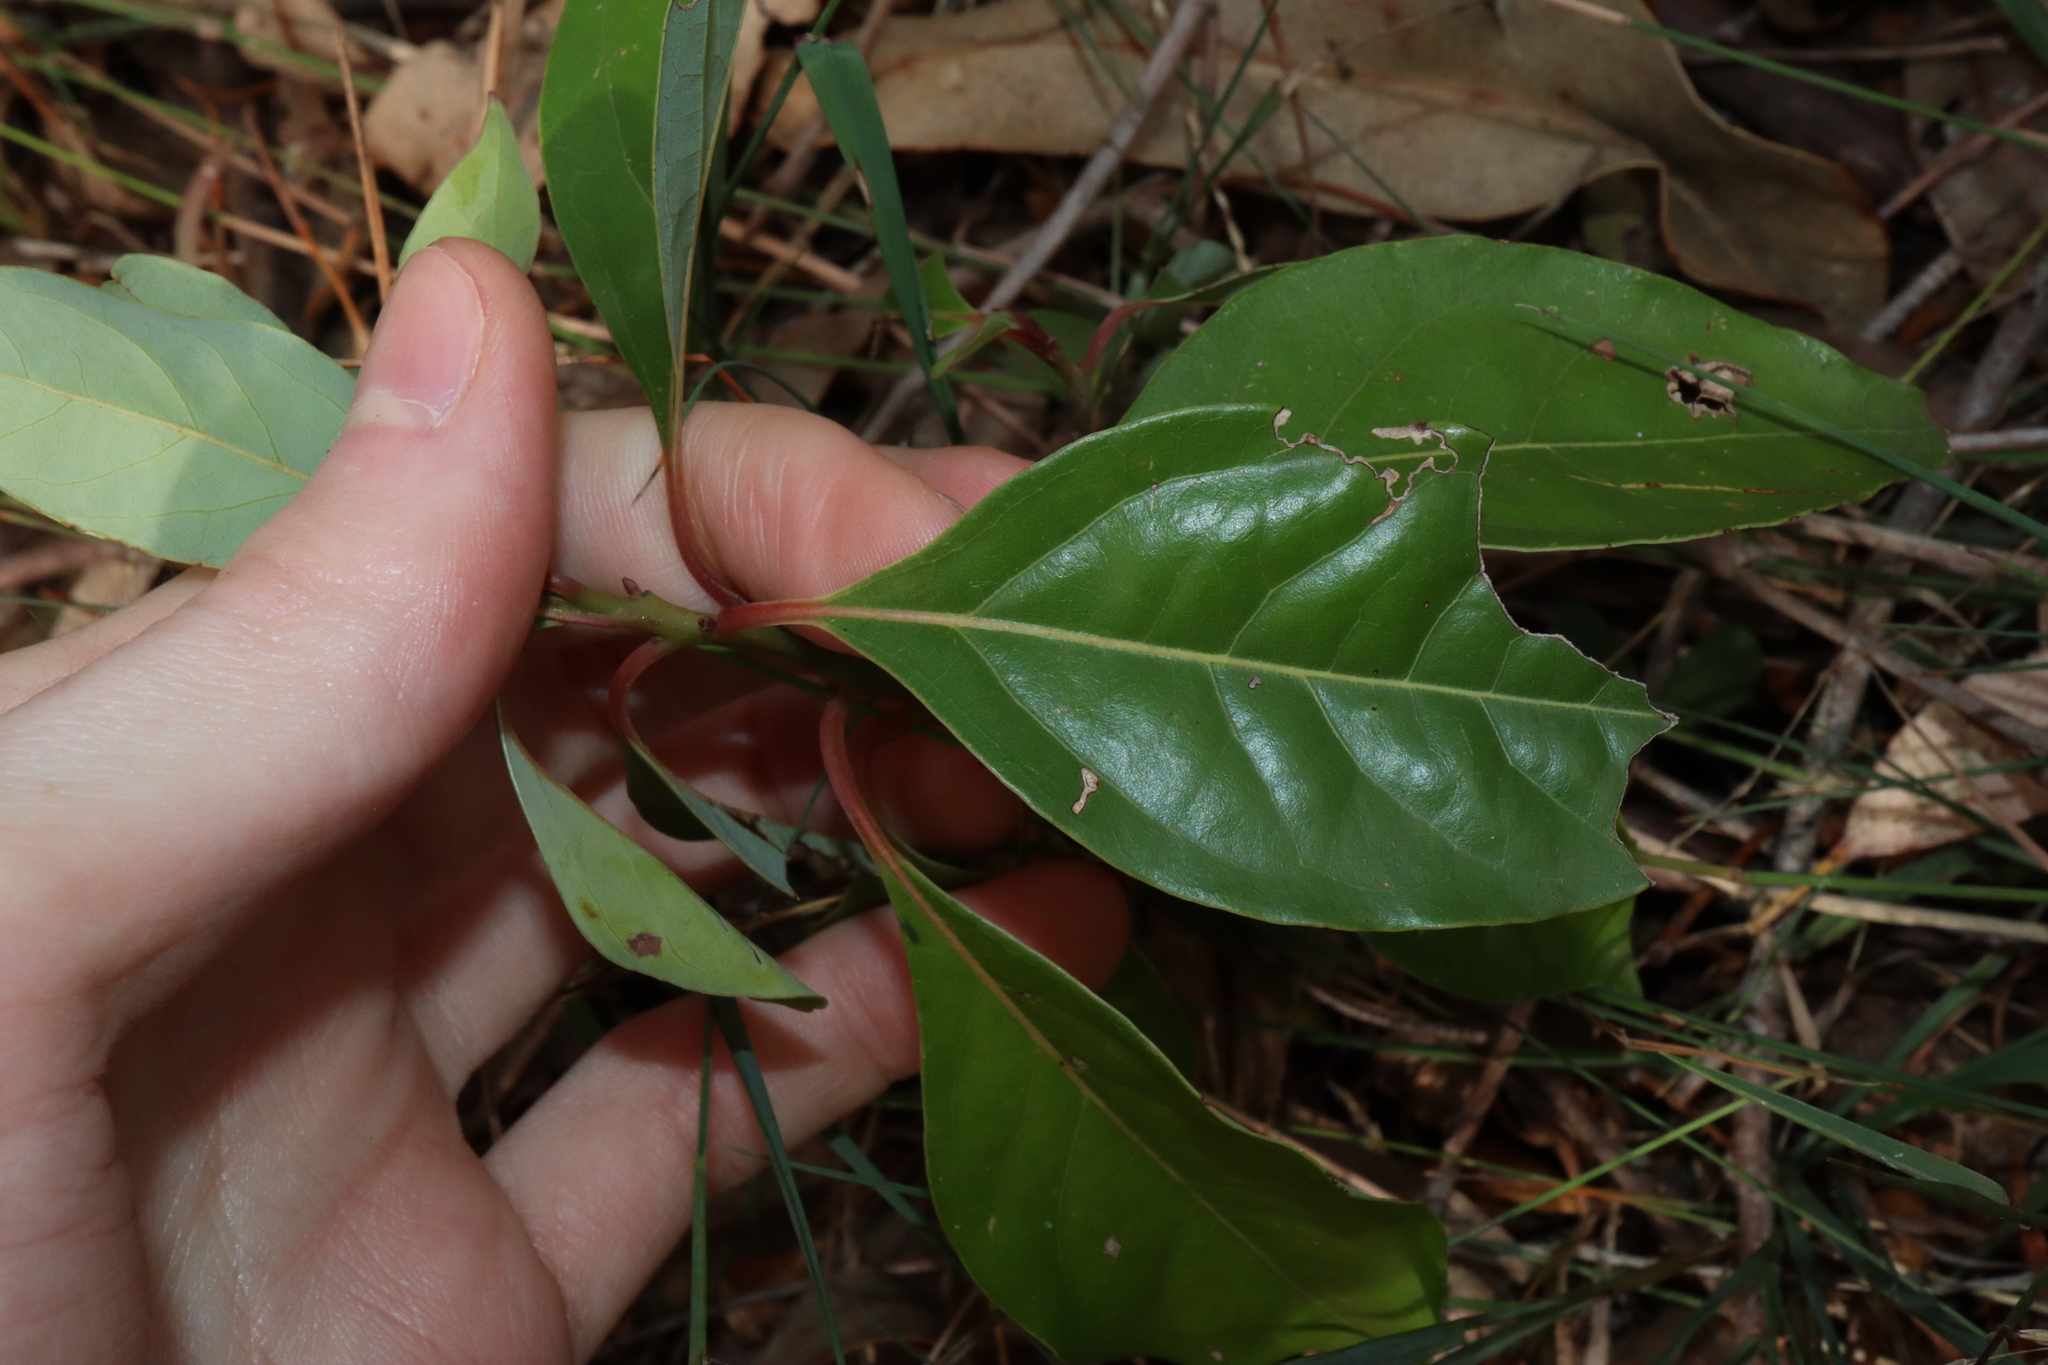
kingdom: Plantae
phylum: Tracheophyta
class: Magnoliopsida
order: Laurales
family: Lauraceae
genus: Cinnamomum
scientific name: Cinnamomum camphora
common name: Camphortree
